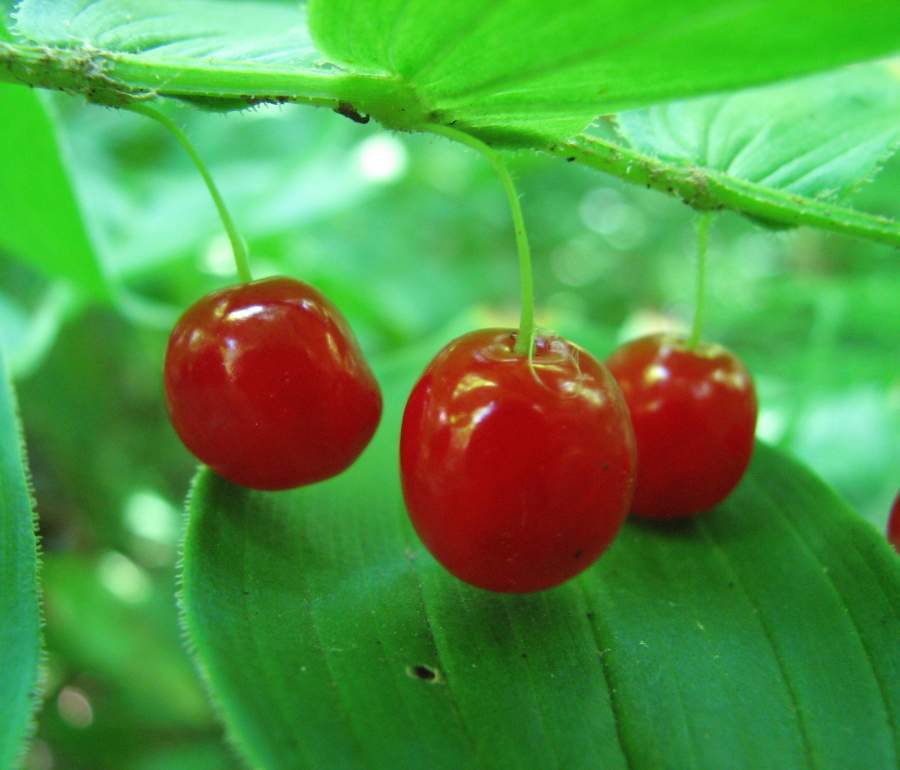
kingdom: Plantae
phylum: Tracheophyta
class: Liliopsida
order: Liliales
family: Liliaceae
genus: Streptopus
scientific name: Streptopus lanceolatus
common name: Rose mandarin
